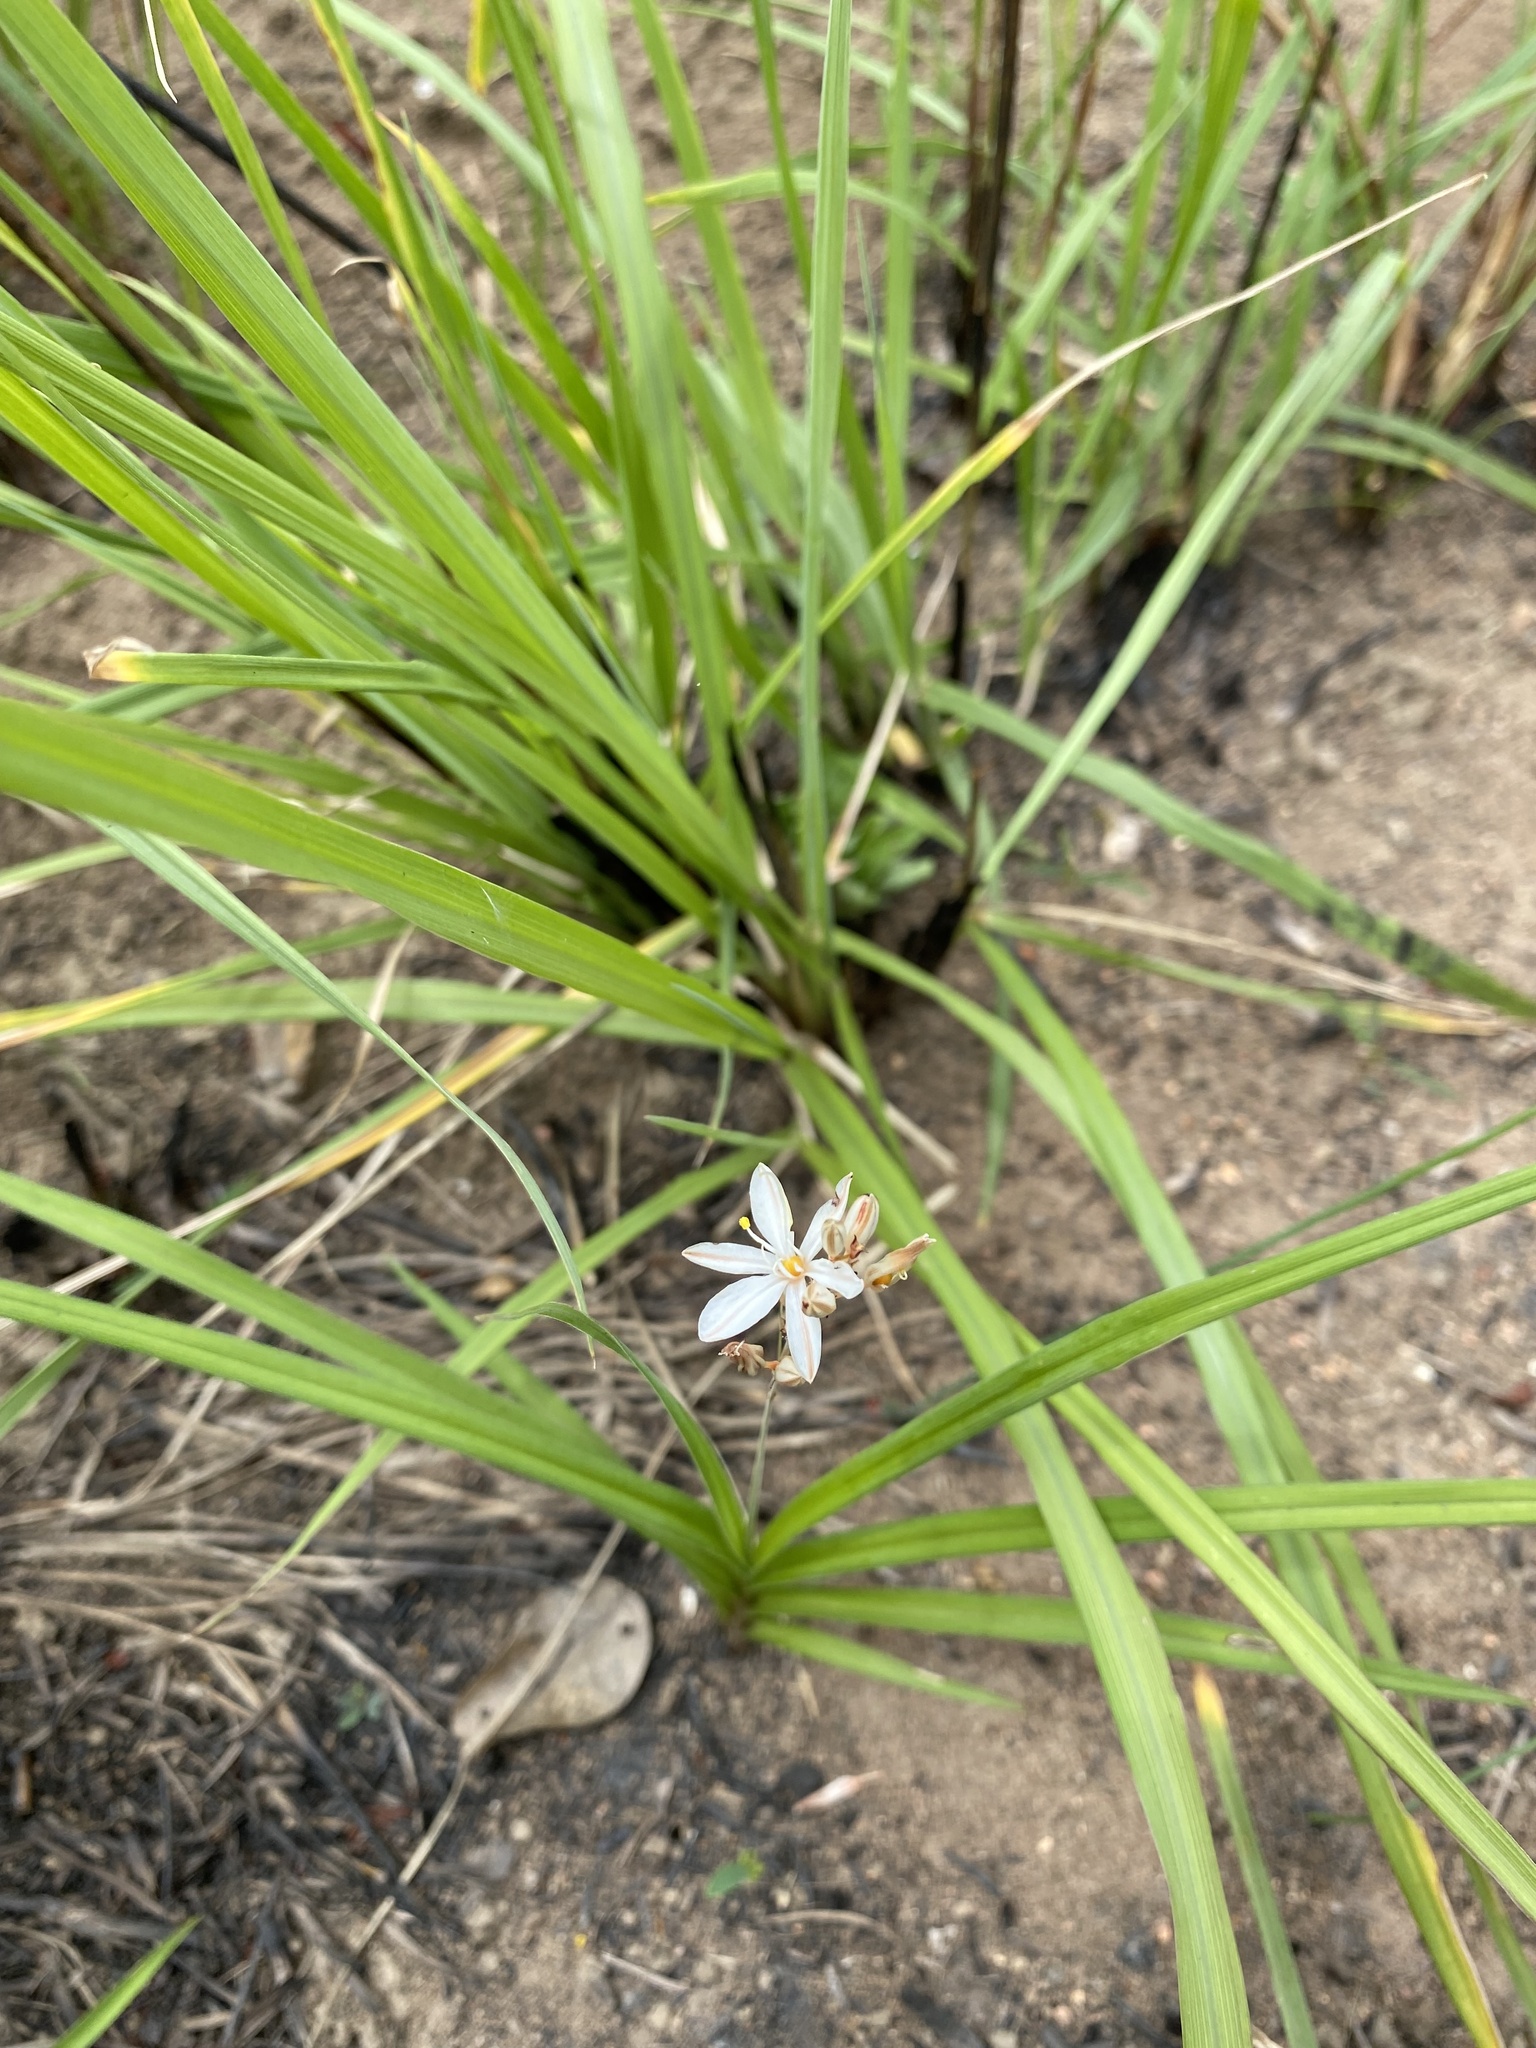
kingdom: Plantae
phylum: Tracheophyta
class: Liliopsida
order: Asparagales
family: Asparagaceae
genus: Chlorophytum
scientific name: Chlorophytum saundersiae
